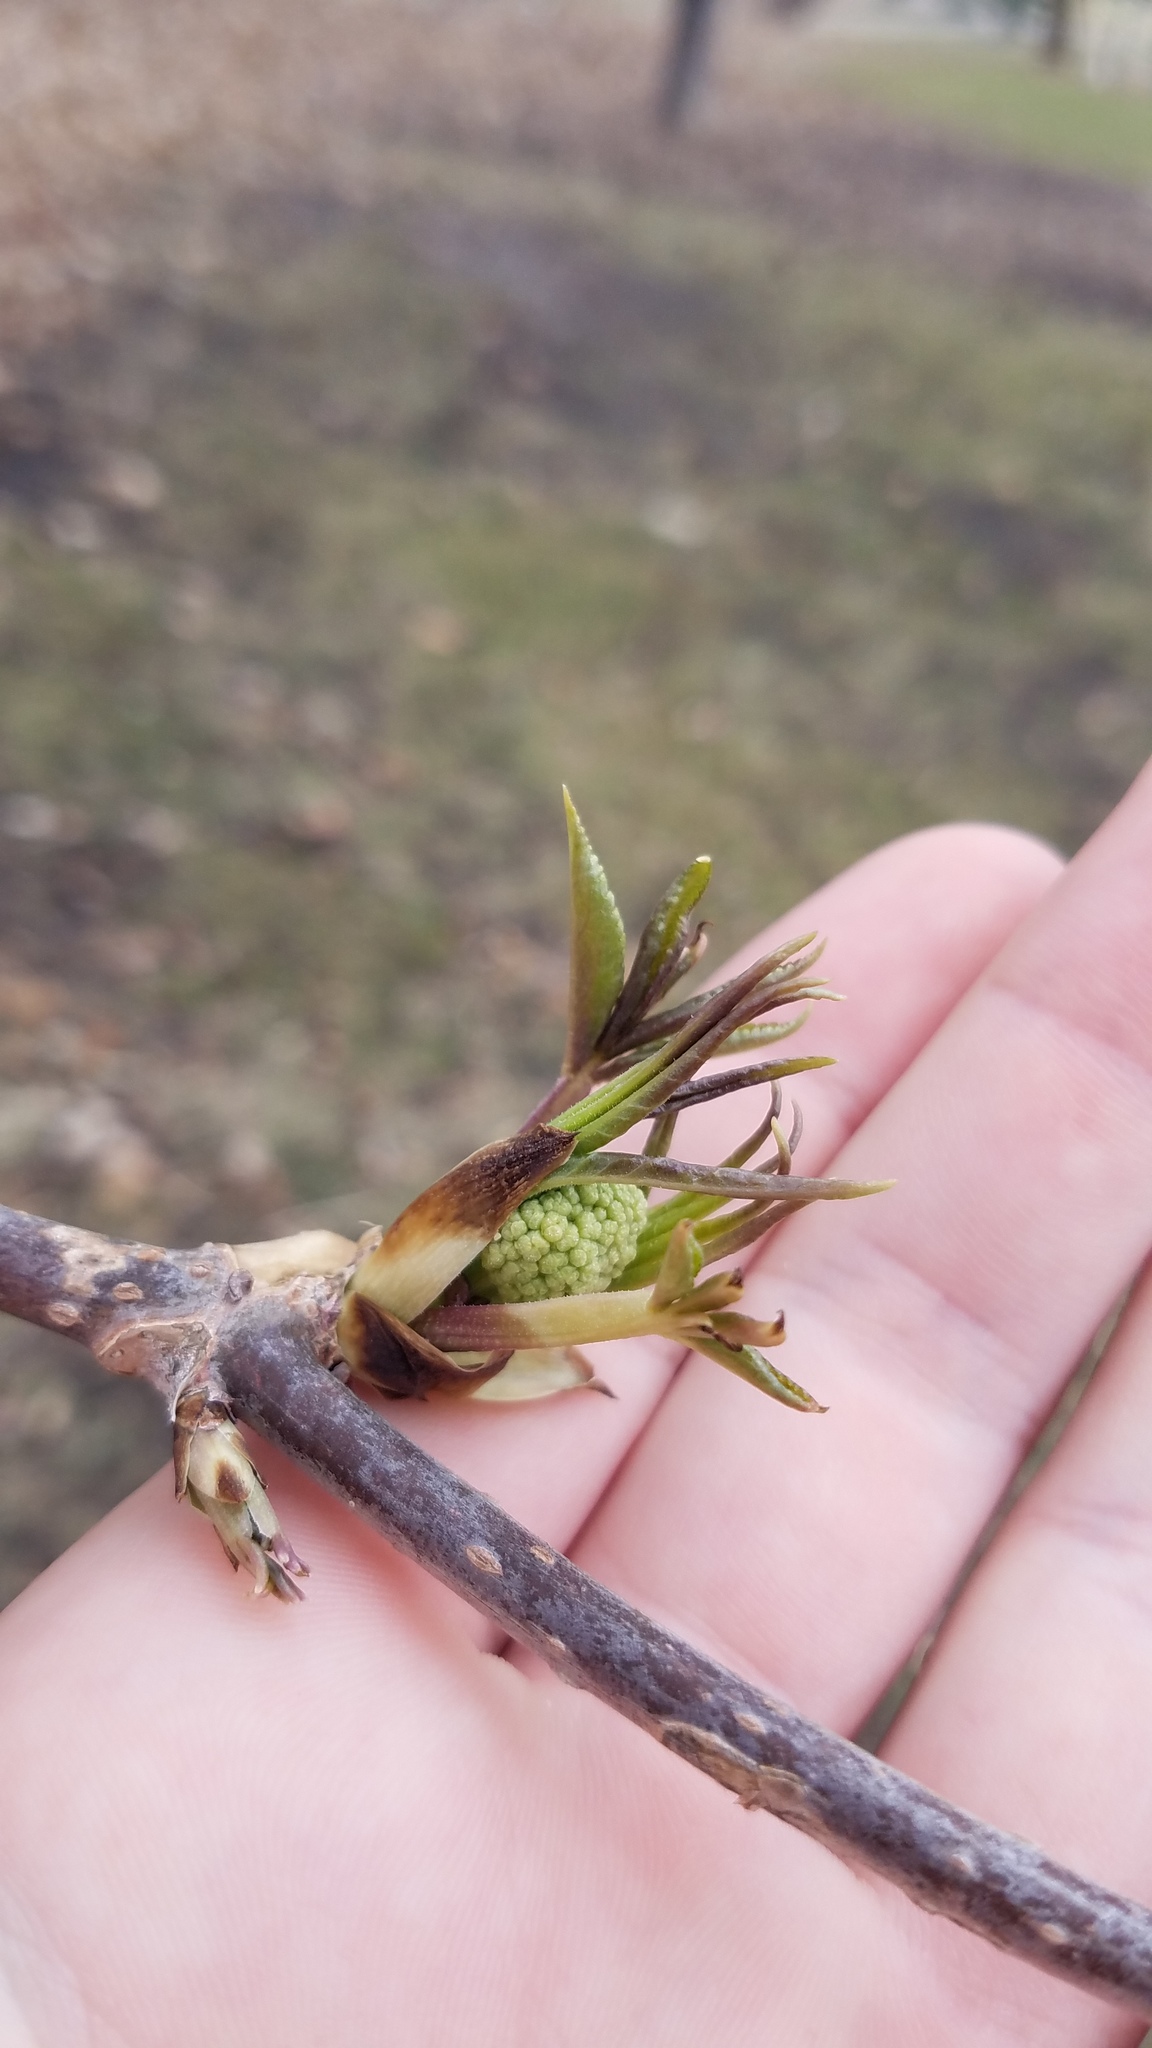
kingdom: Plantae
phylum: Tracheophyta
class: Magnoliopsida
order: Dipsacales
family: Viburnaceae
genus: Sambucus
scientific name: Sambucus racemosa
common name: Red-berried elder
